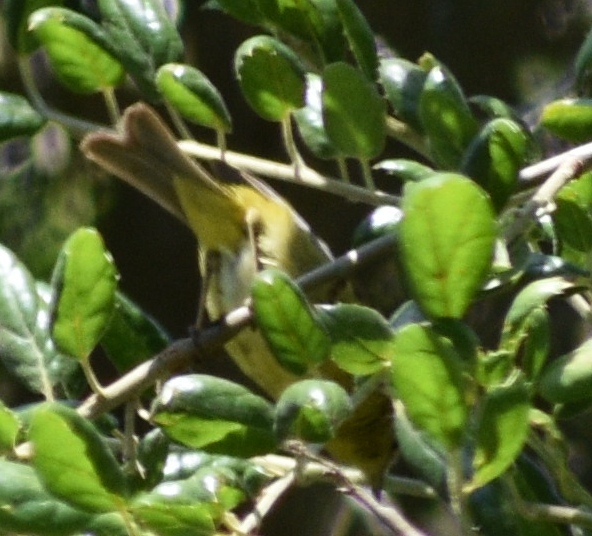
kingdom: Animalia
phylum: Chordata
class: Aves
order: Passeriformes
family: Parulidae
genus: Leiothlypis
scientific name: Leiothlypis celata
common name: Orange-crowned warbler
